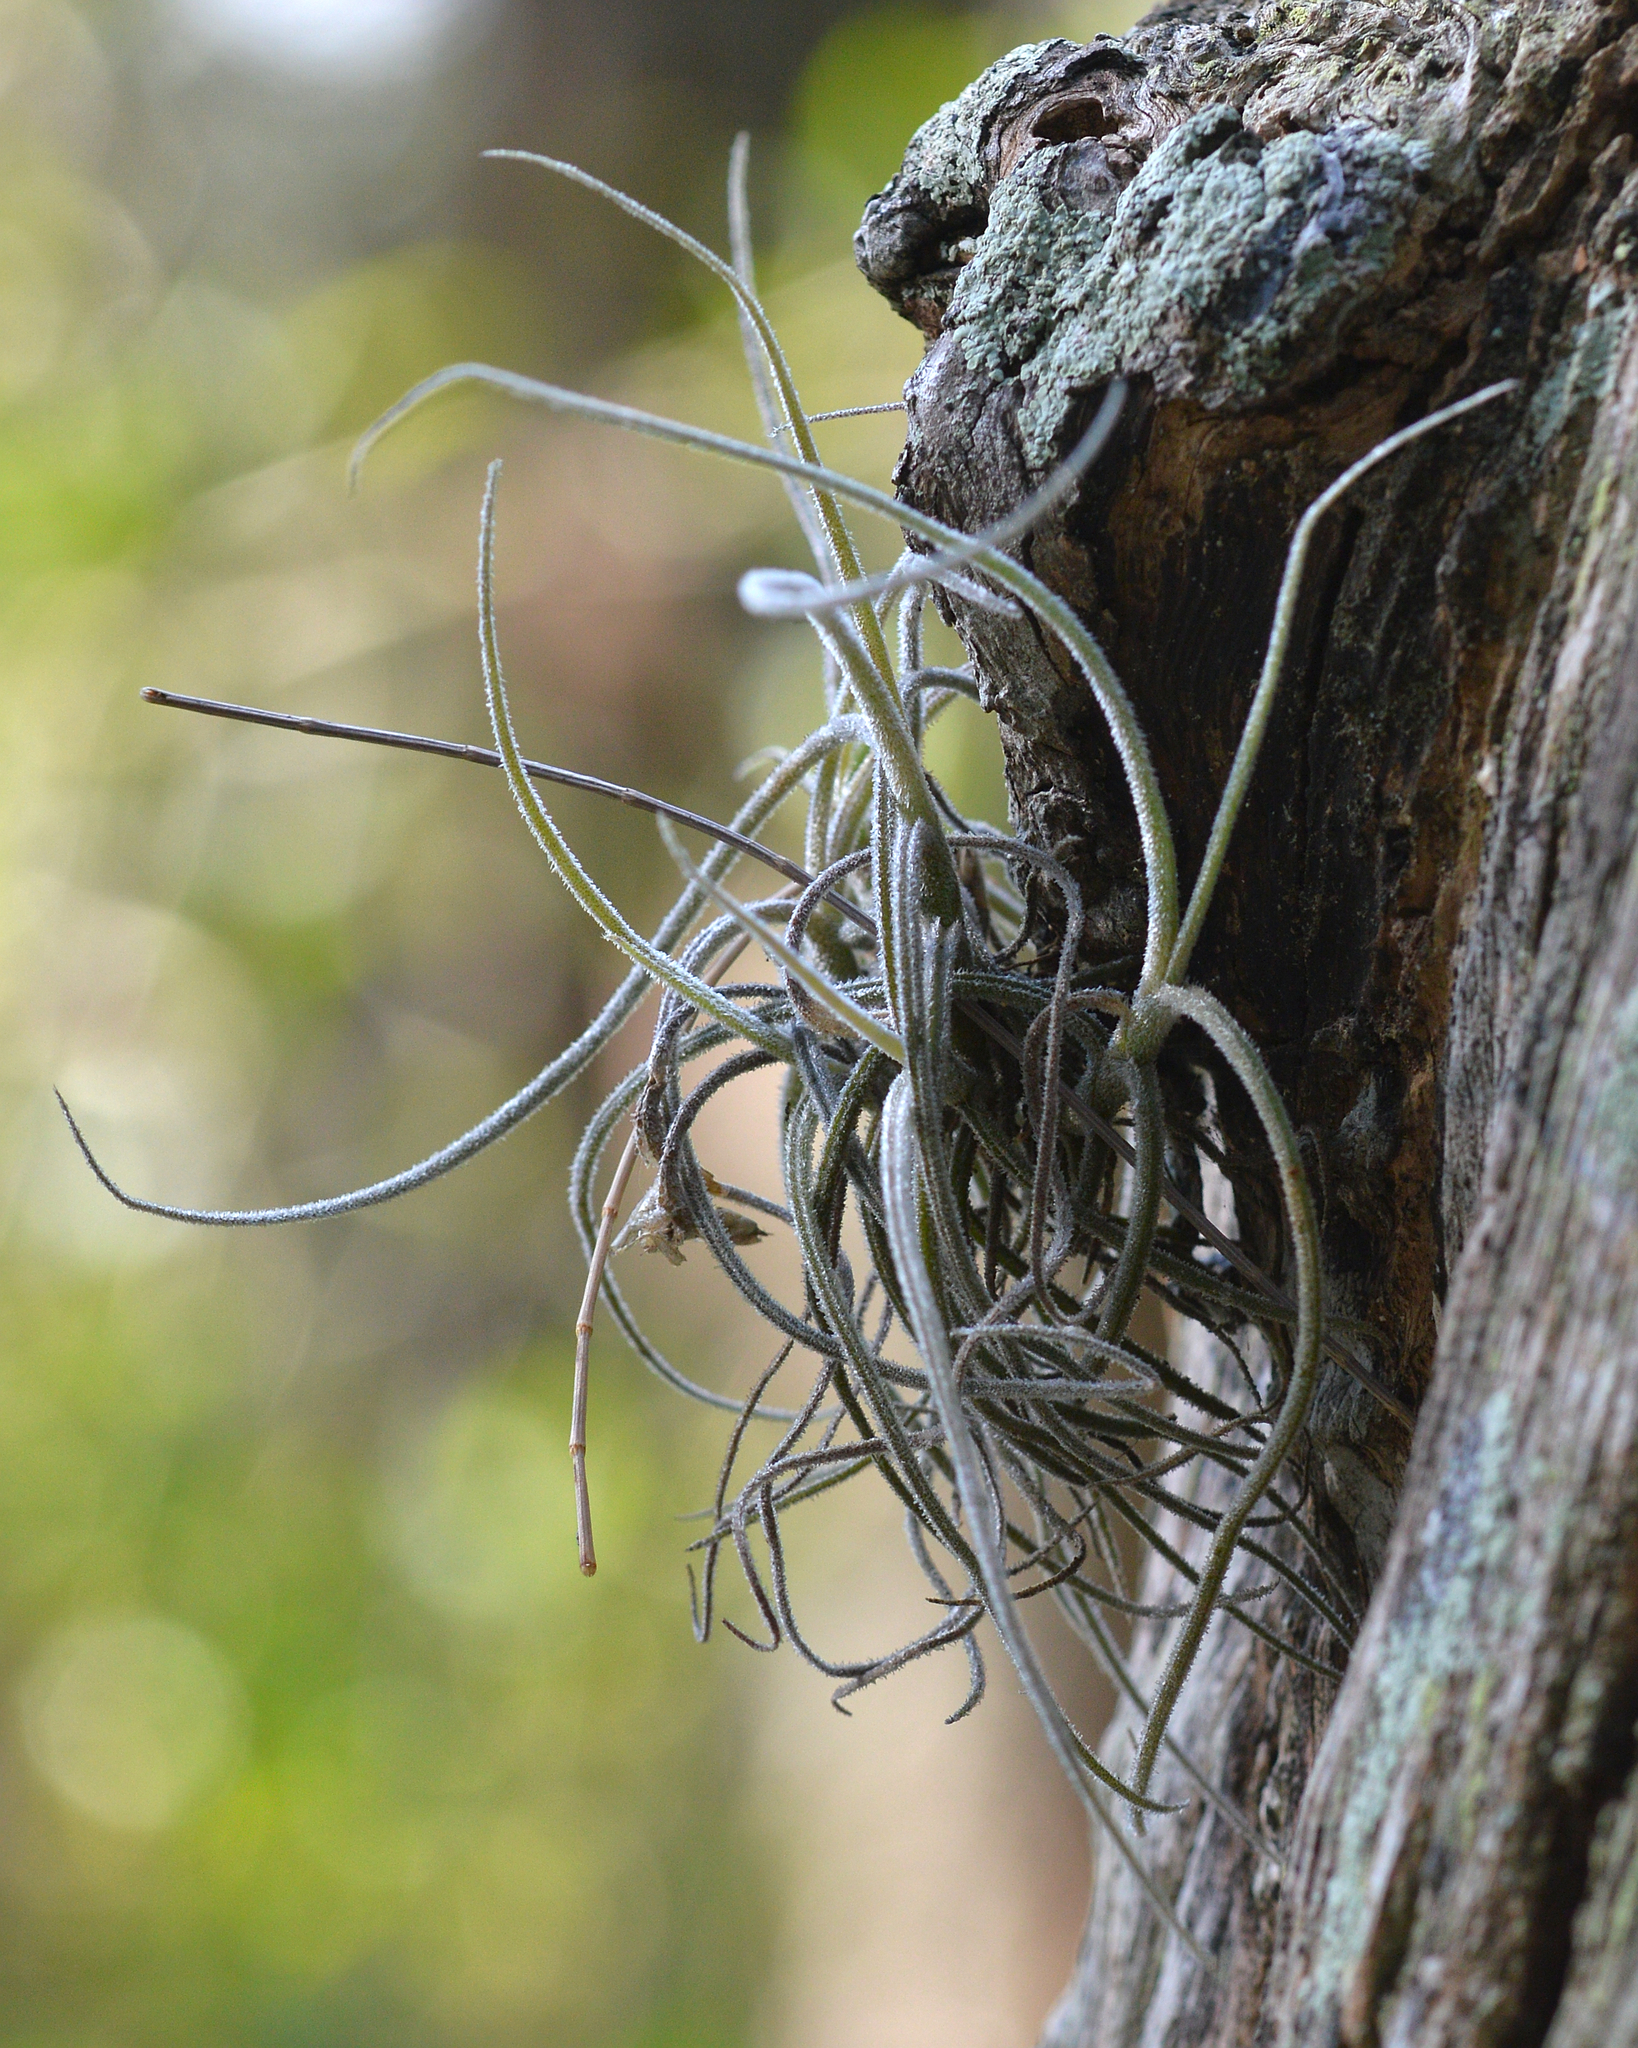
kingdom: Plantae
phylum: Tracheophyta
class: Liliopsida
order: Poales
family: Bromeliaceae
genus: Tillandsia
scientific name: Tillandsia recurvata
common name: Small ballmoss
